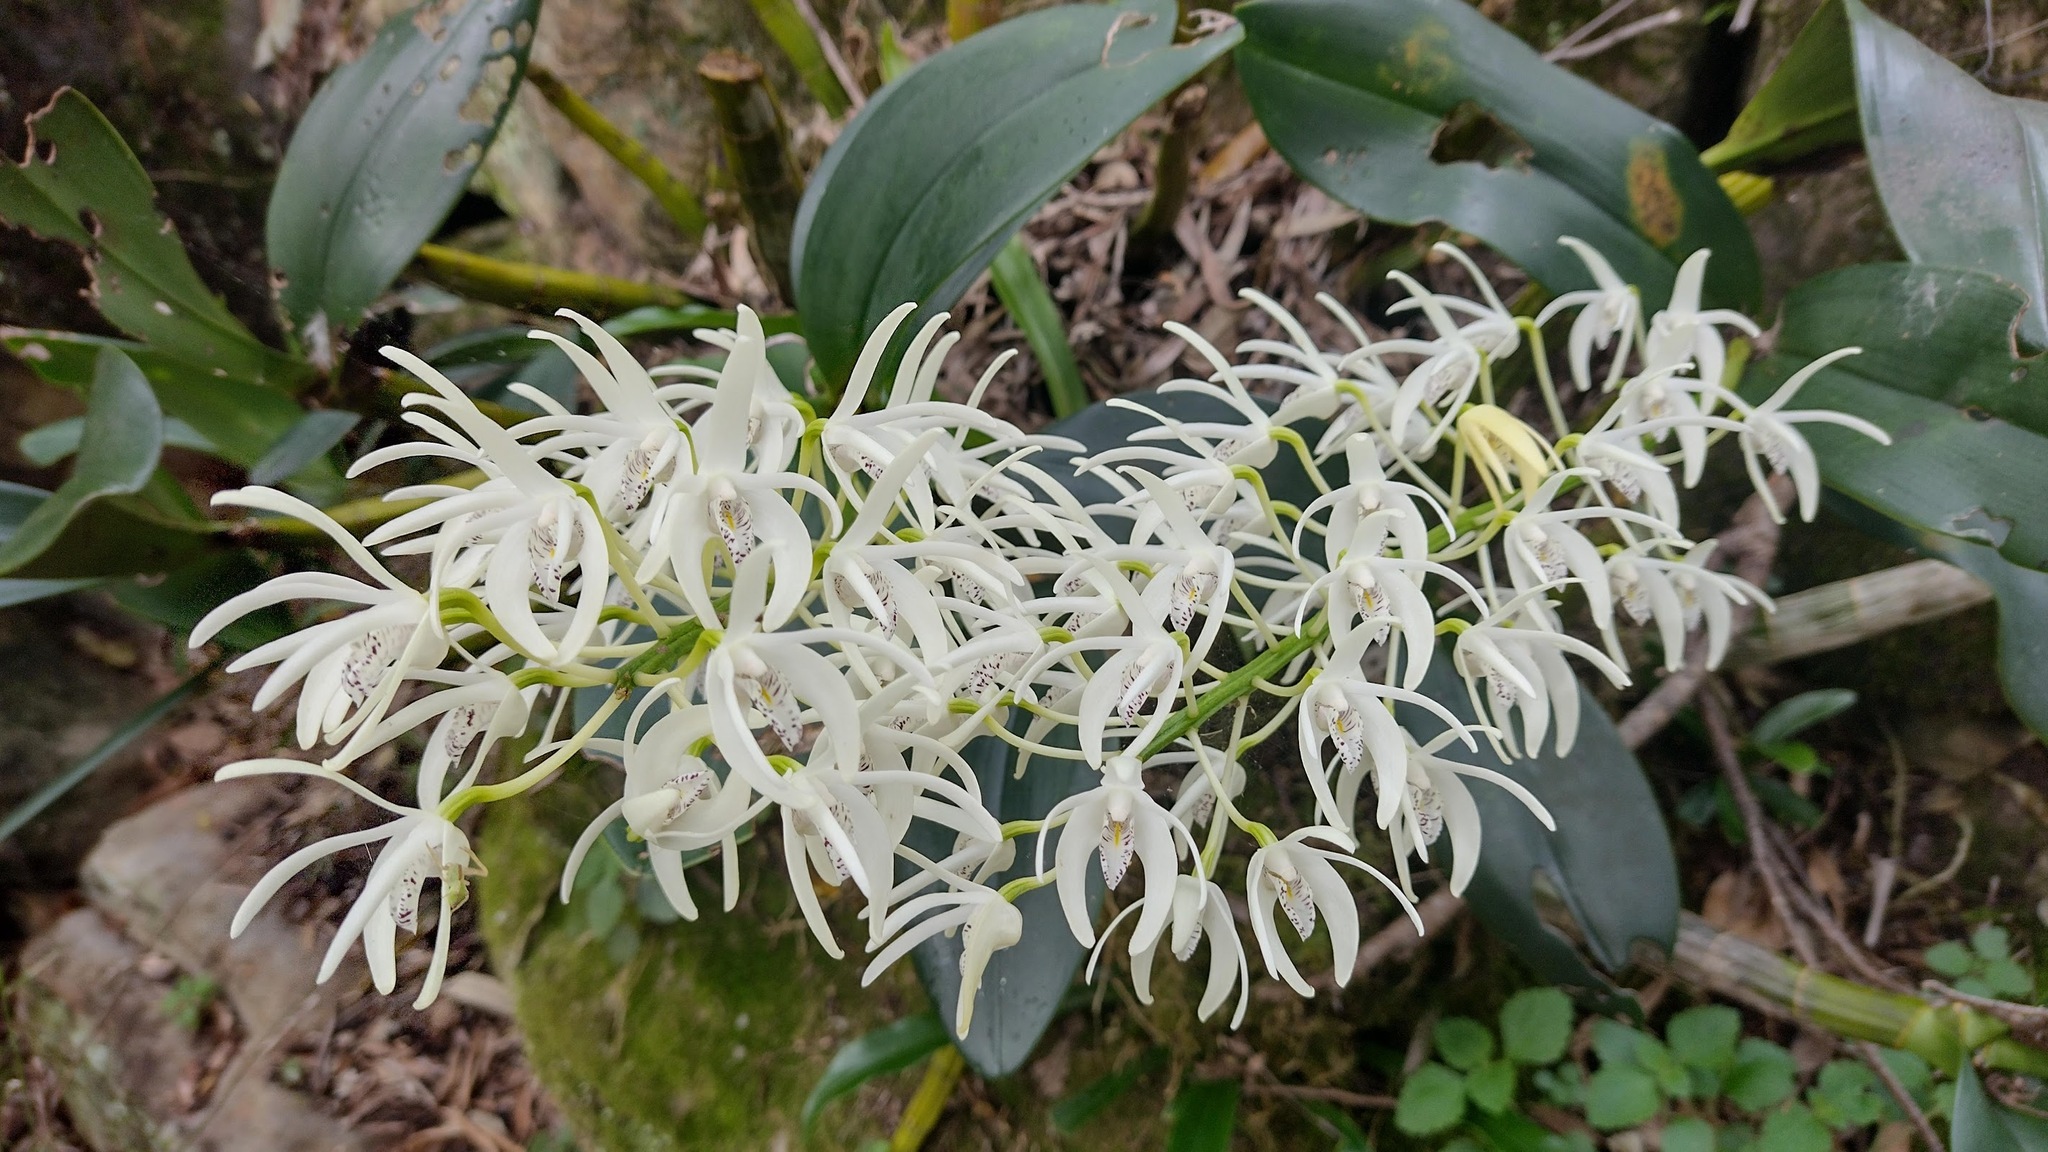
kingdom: Plantae
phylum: Tracheophyta
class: Liliopsida
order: Asparagales
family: Orchidaceae
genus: Dendrobium
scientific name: Dendrobium speciosum
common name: Rock-lily
